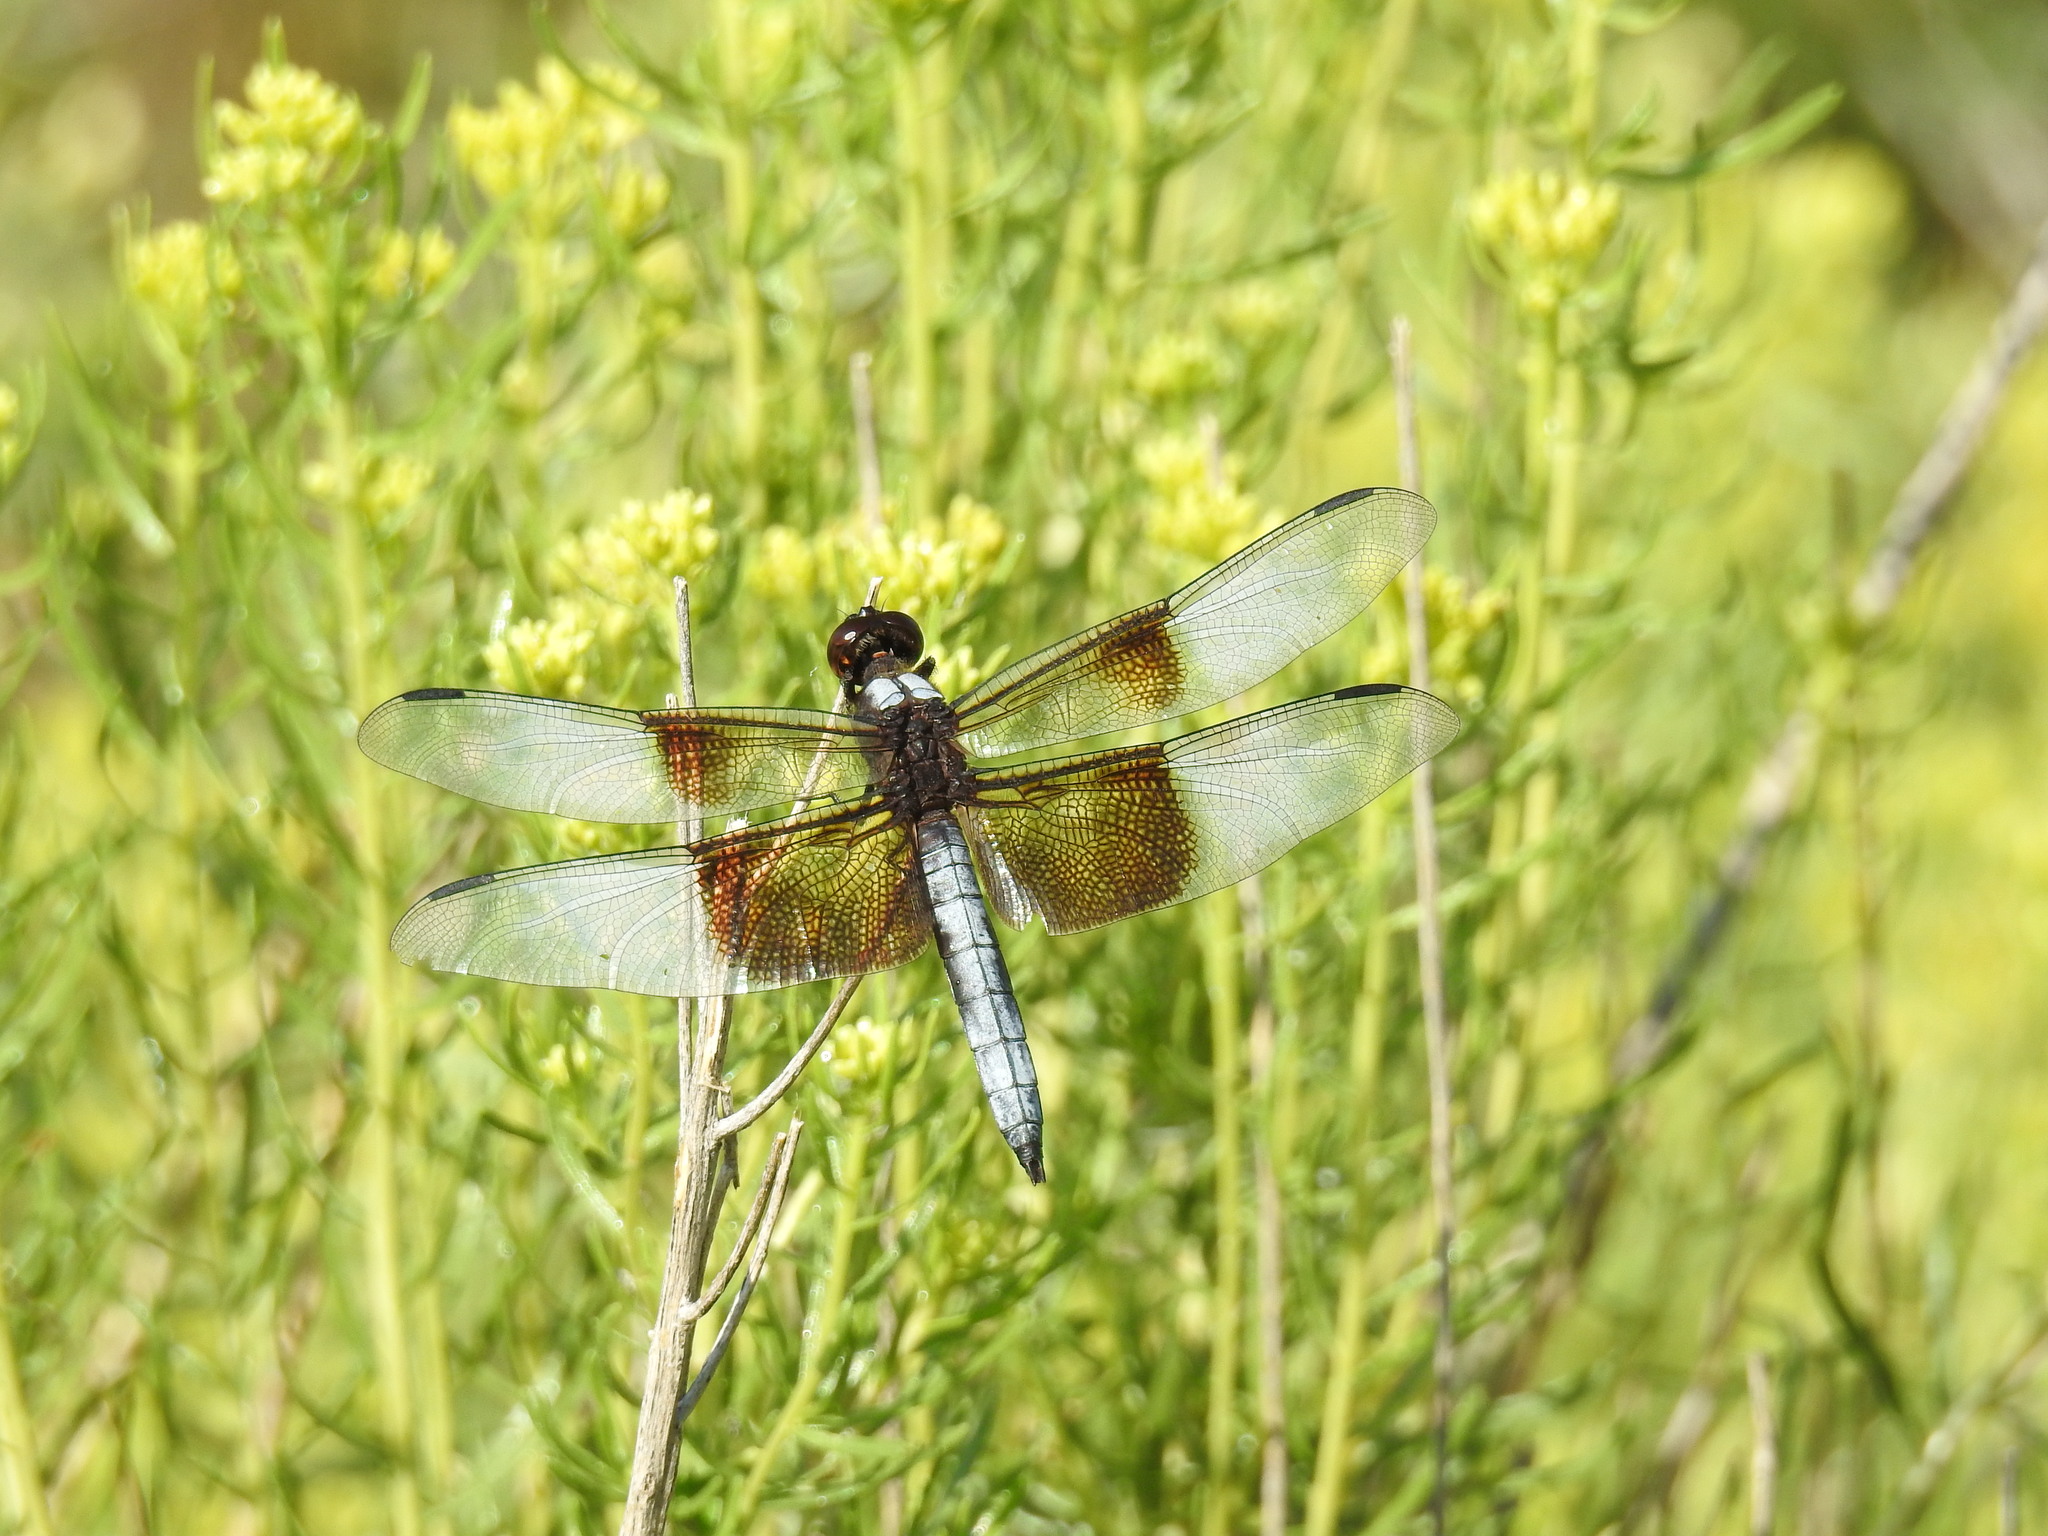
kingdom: Animalia
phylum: Arthropoda
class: Insecta
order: Odonata
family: Libellulidae
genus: Libellula
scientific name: Libellula luctuosa
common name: Widow skimmer
